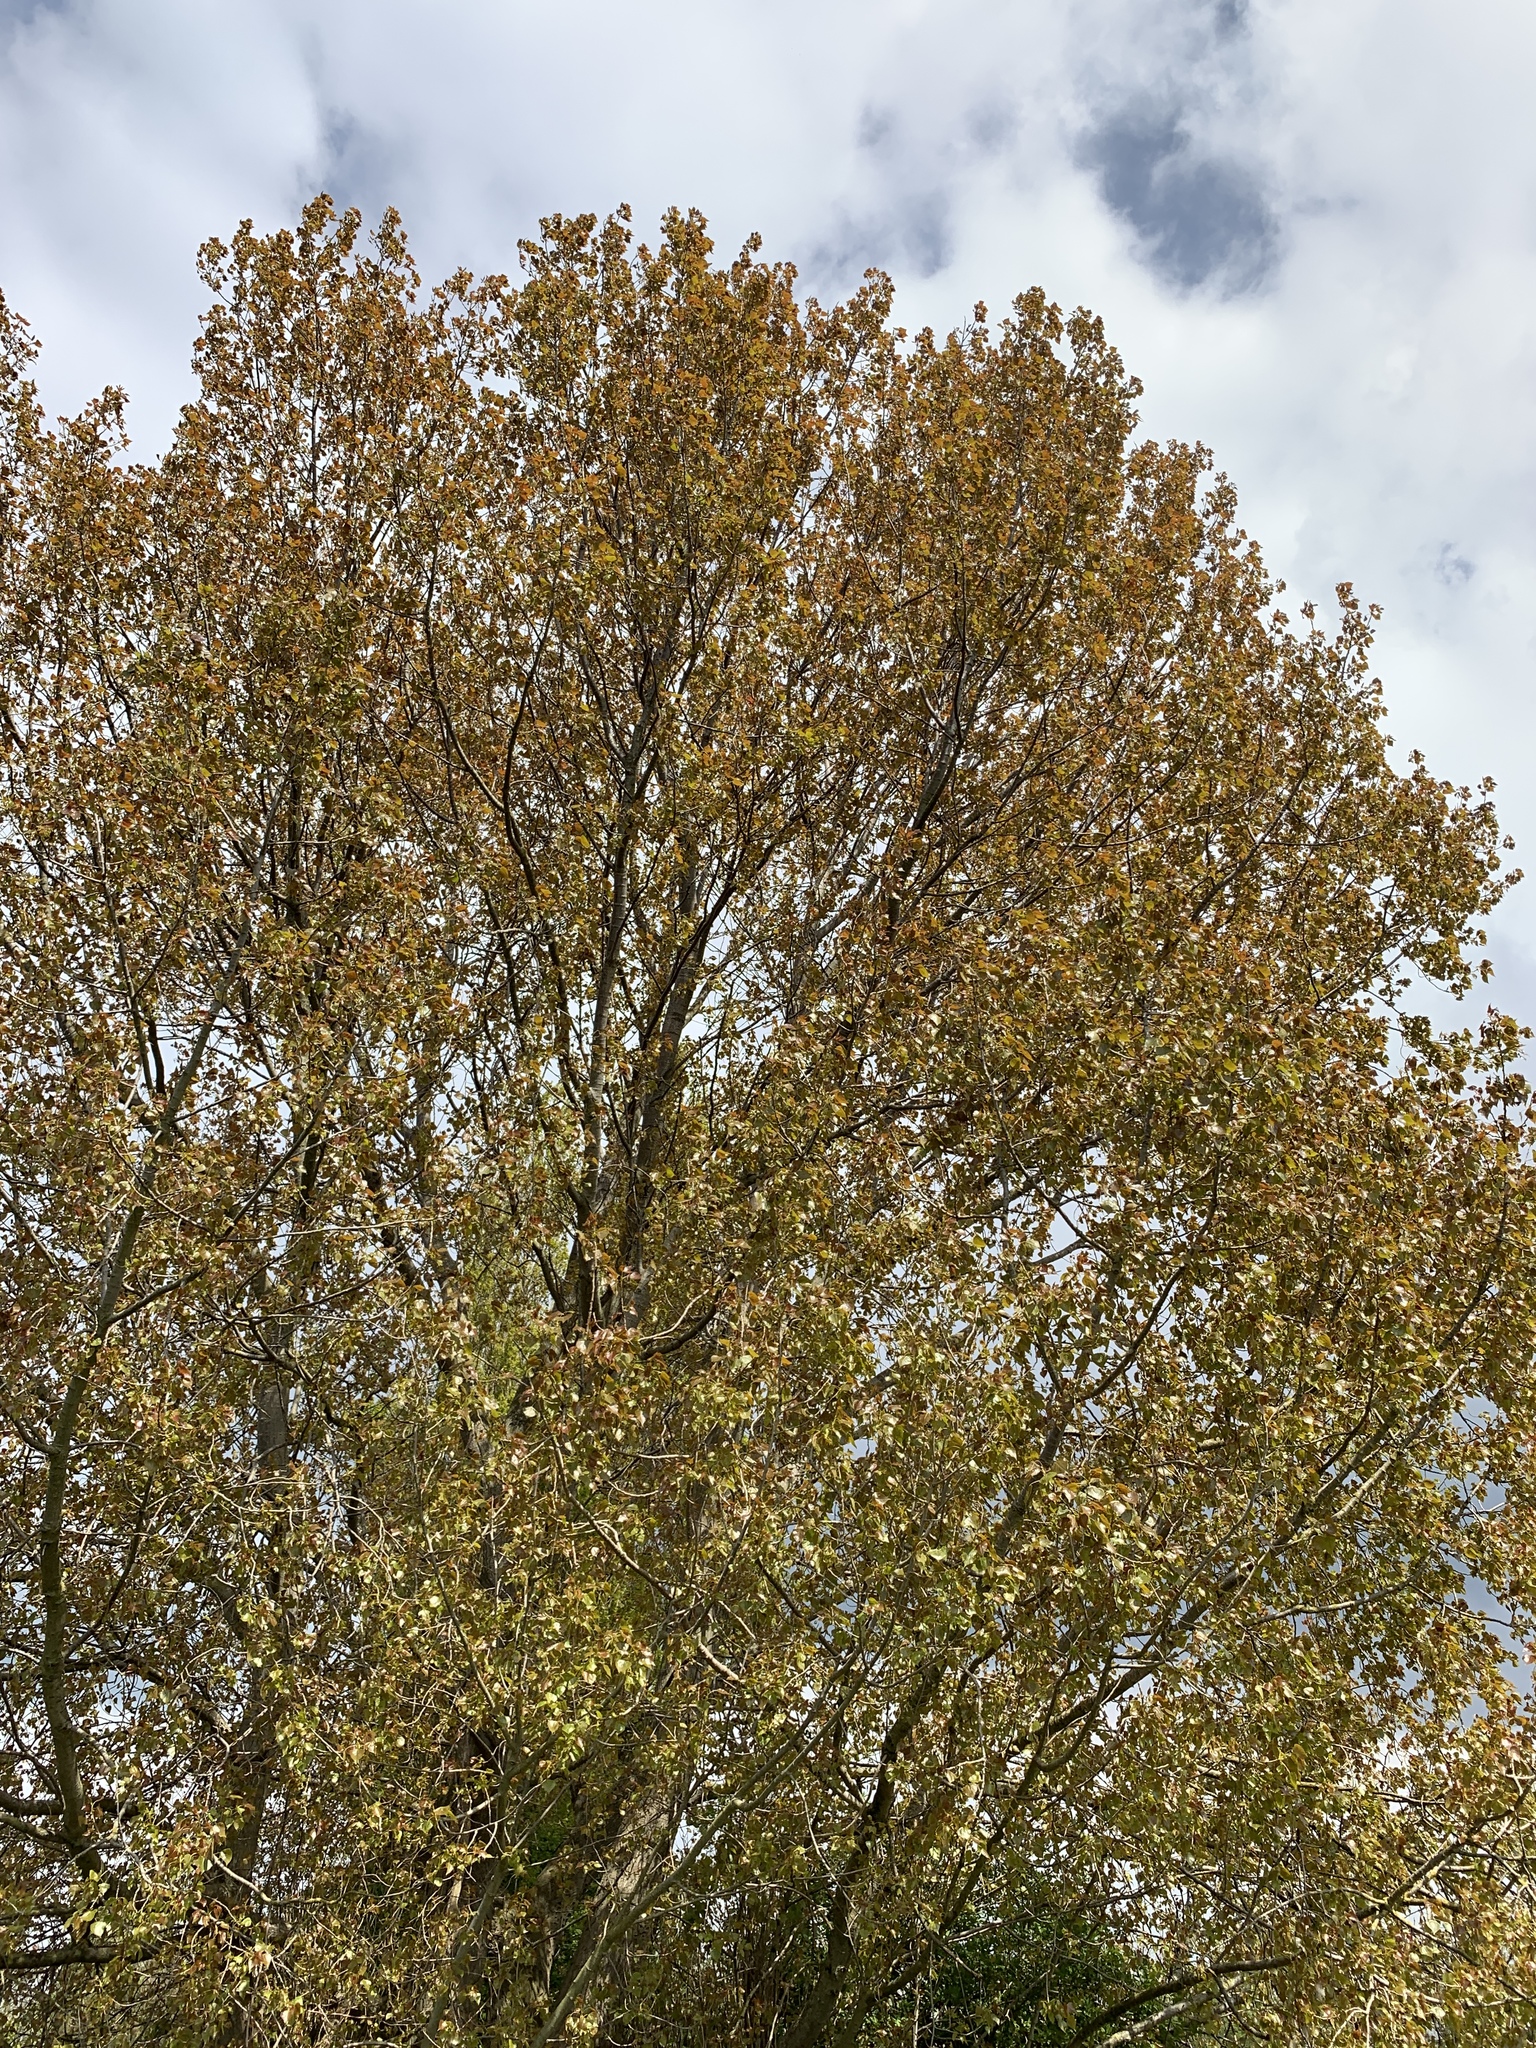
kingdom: Plantae
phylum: Tracheophyta
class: Magnoliopsida
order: Malpighiales
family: Salicaceae
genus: Populus
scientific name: Populus canadensis
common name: Carolina poplar
